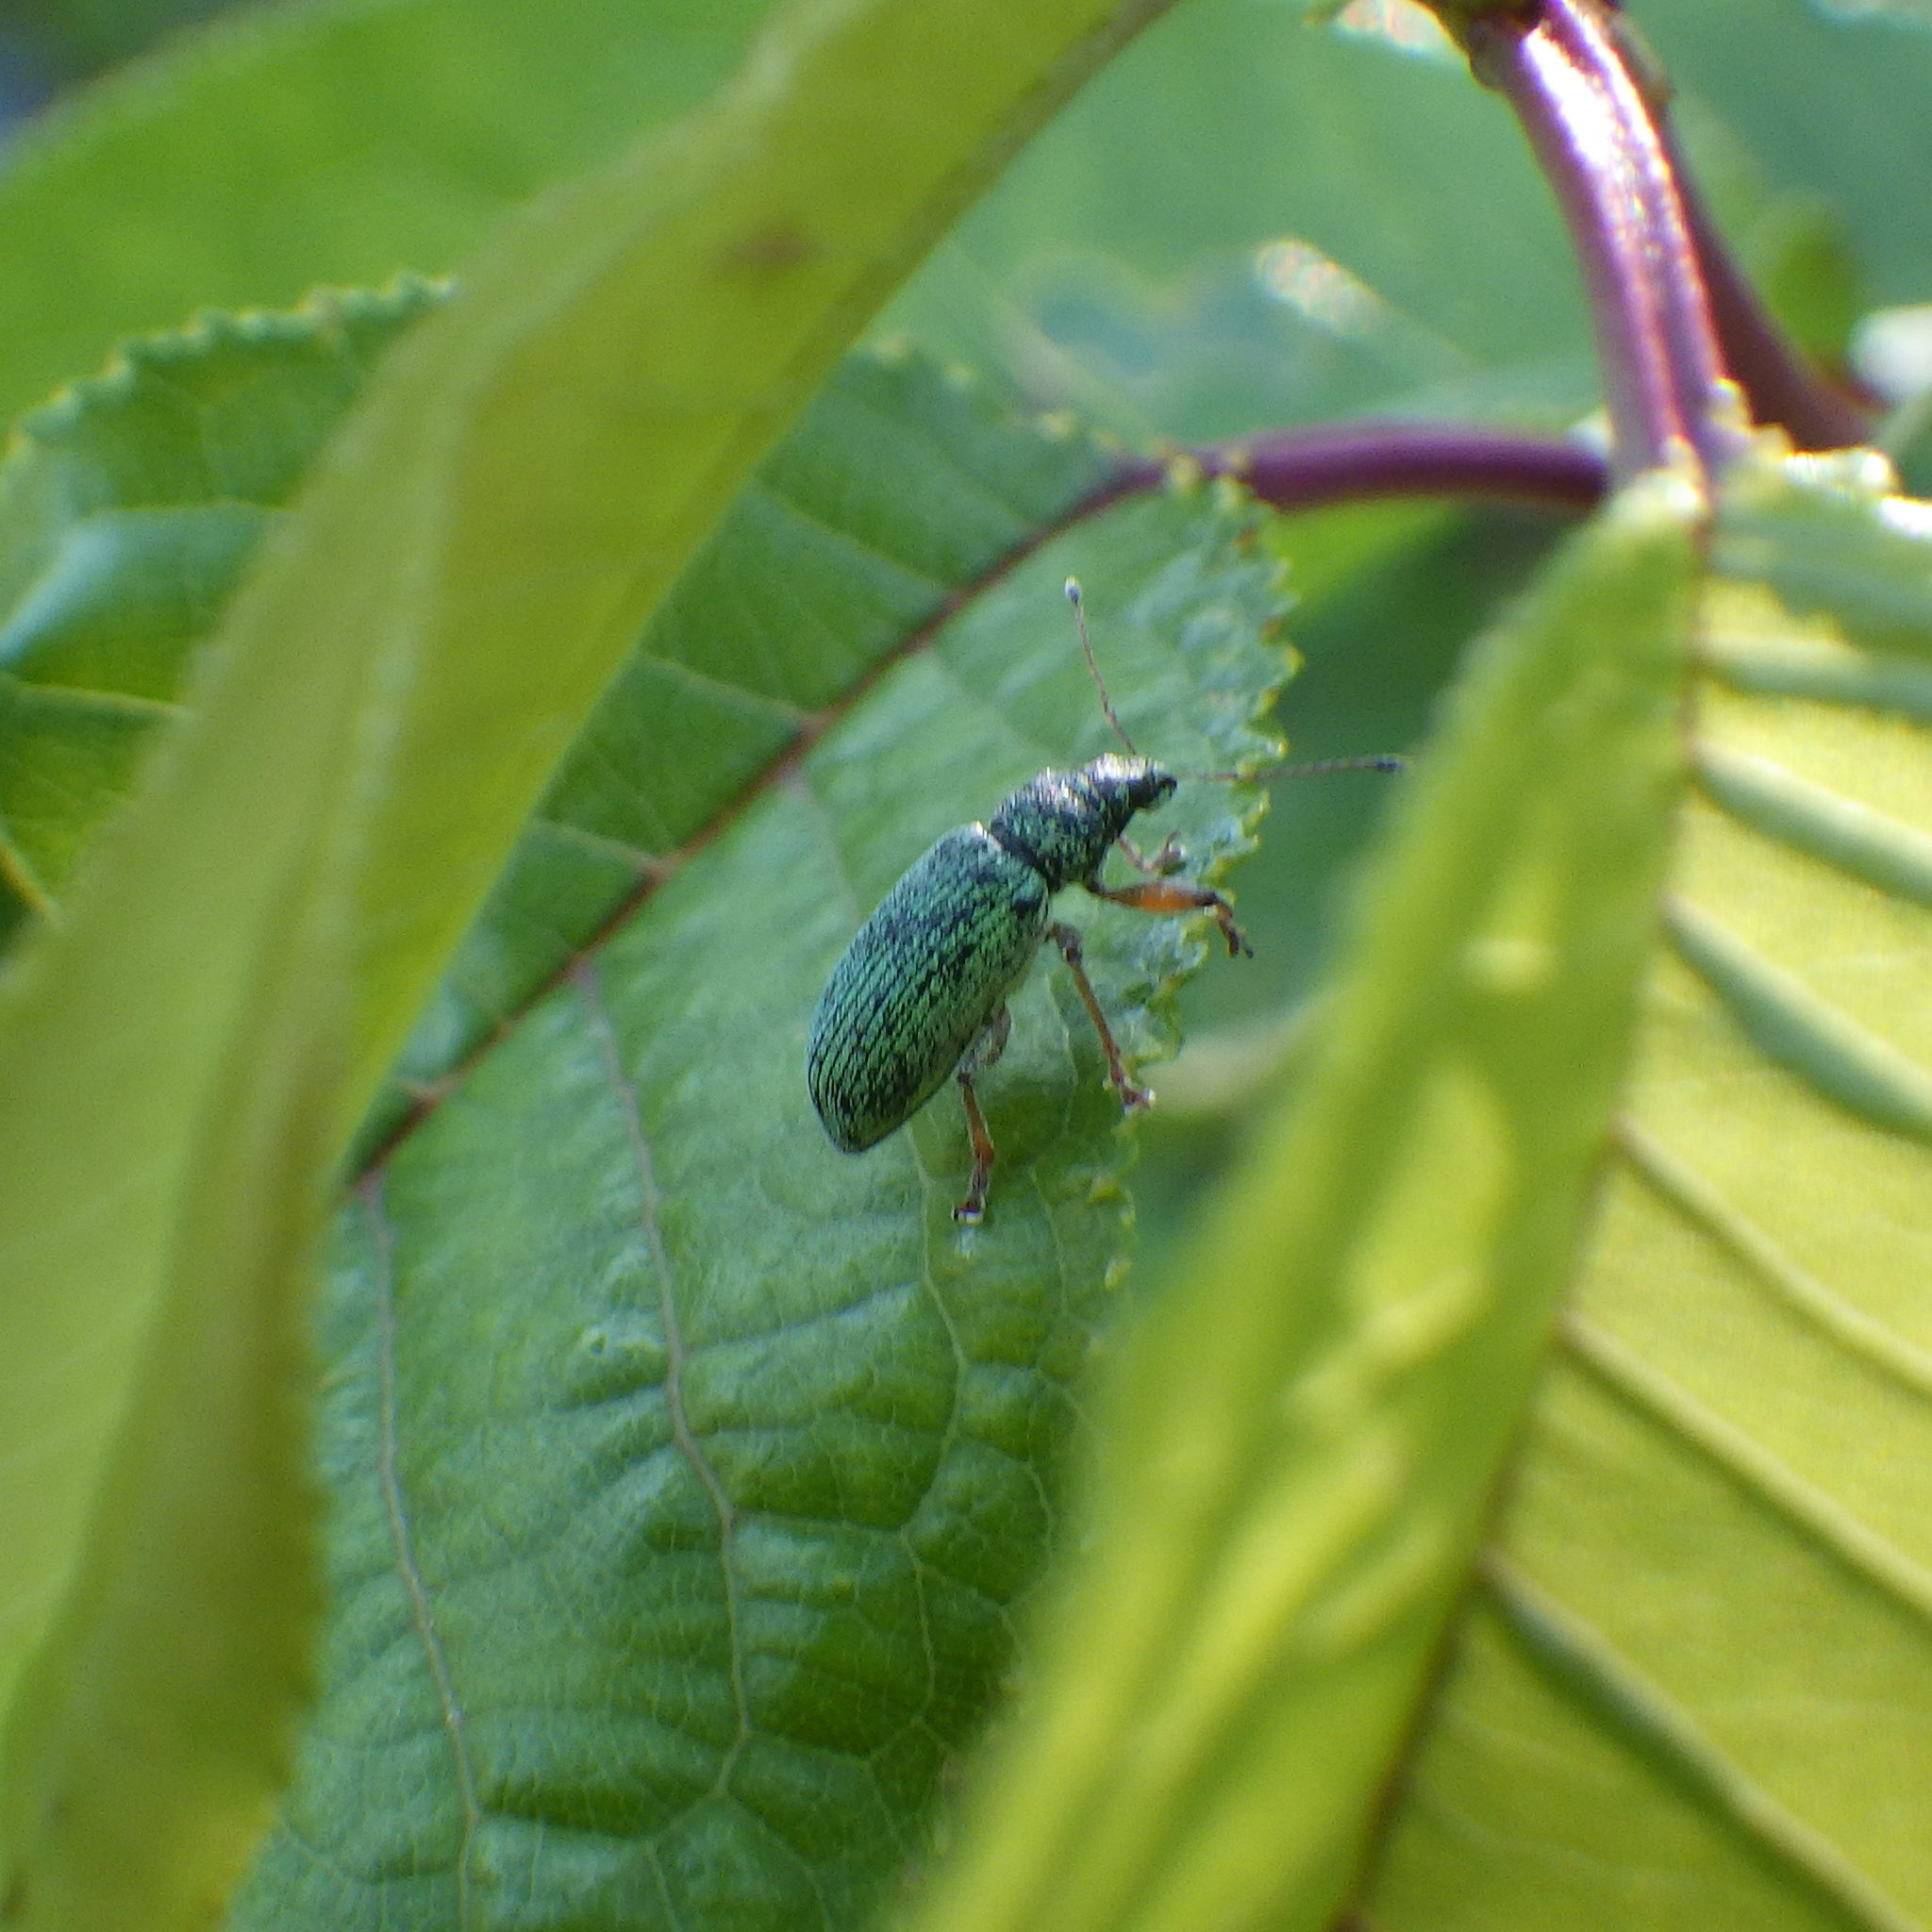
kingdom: Animalia
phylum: Arthropoda
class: Insecta
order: Coleoptera
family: Curculionidae
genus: Polydrusus
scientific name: Polydrusus formosus
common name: Weevil
